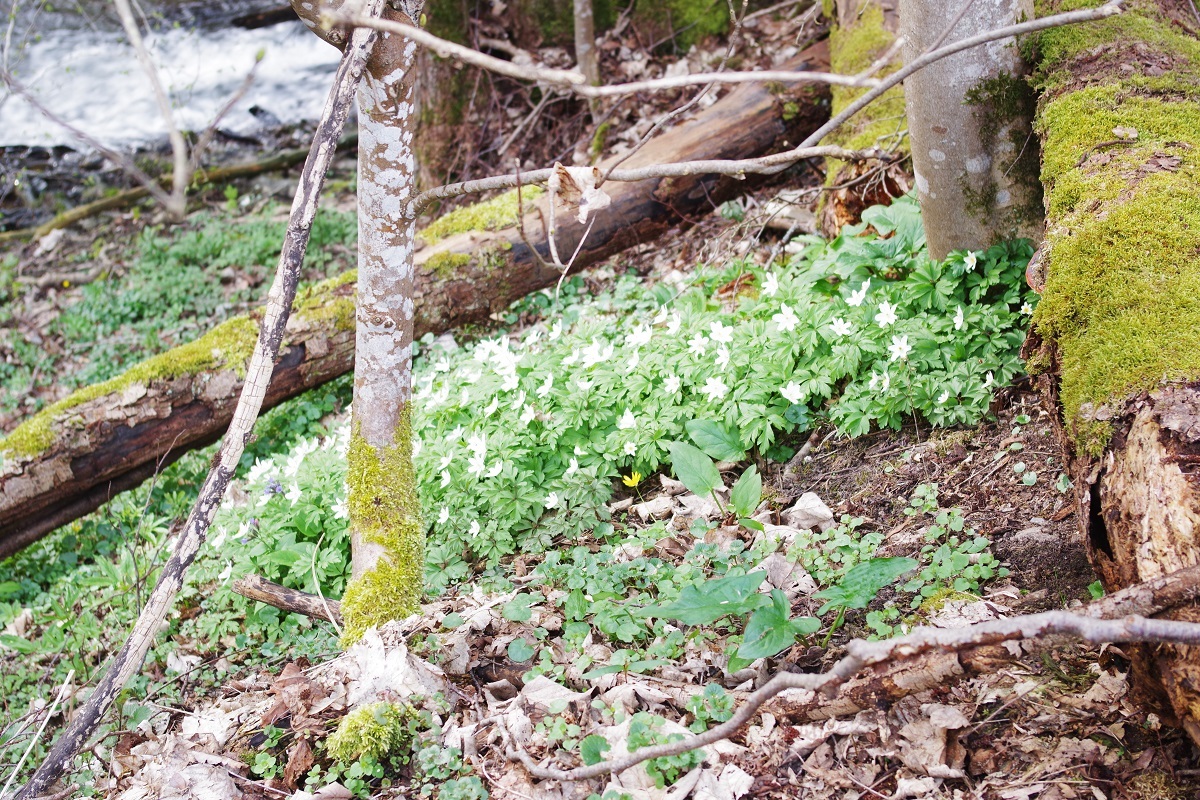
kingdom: Plantae
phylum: Tracheophyta
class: Magnoliopsida
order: Ranunculales
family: Ranunculaceae
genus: Anemone
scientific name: Anemone nemorosa
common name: Wood anemone
